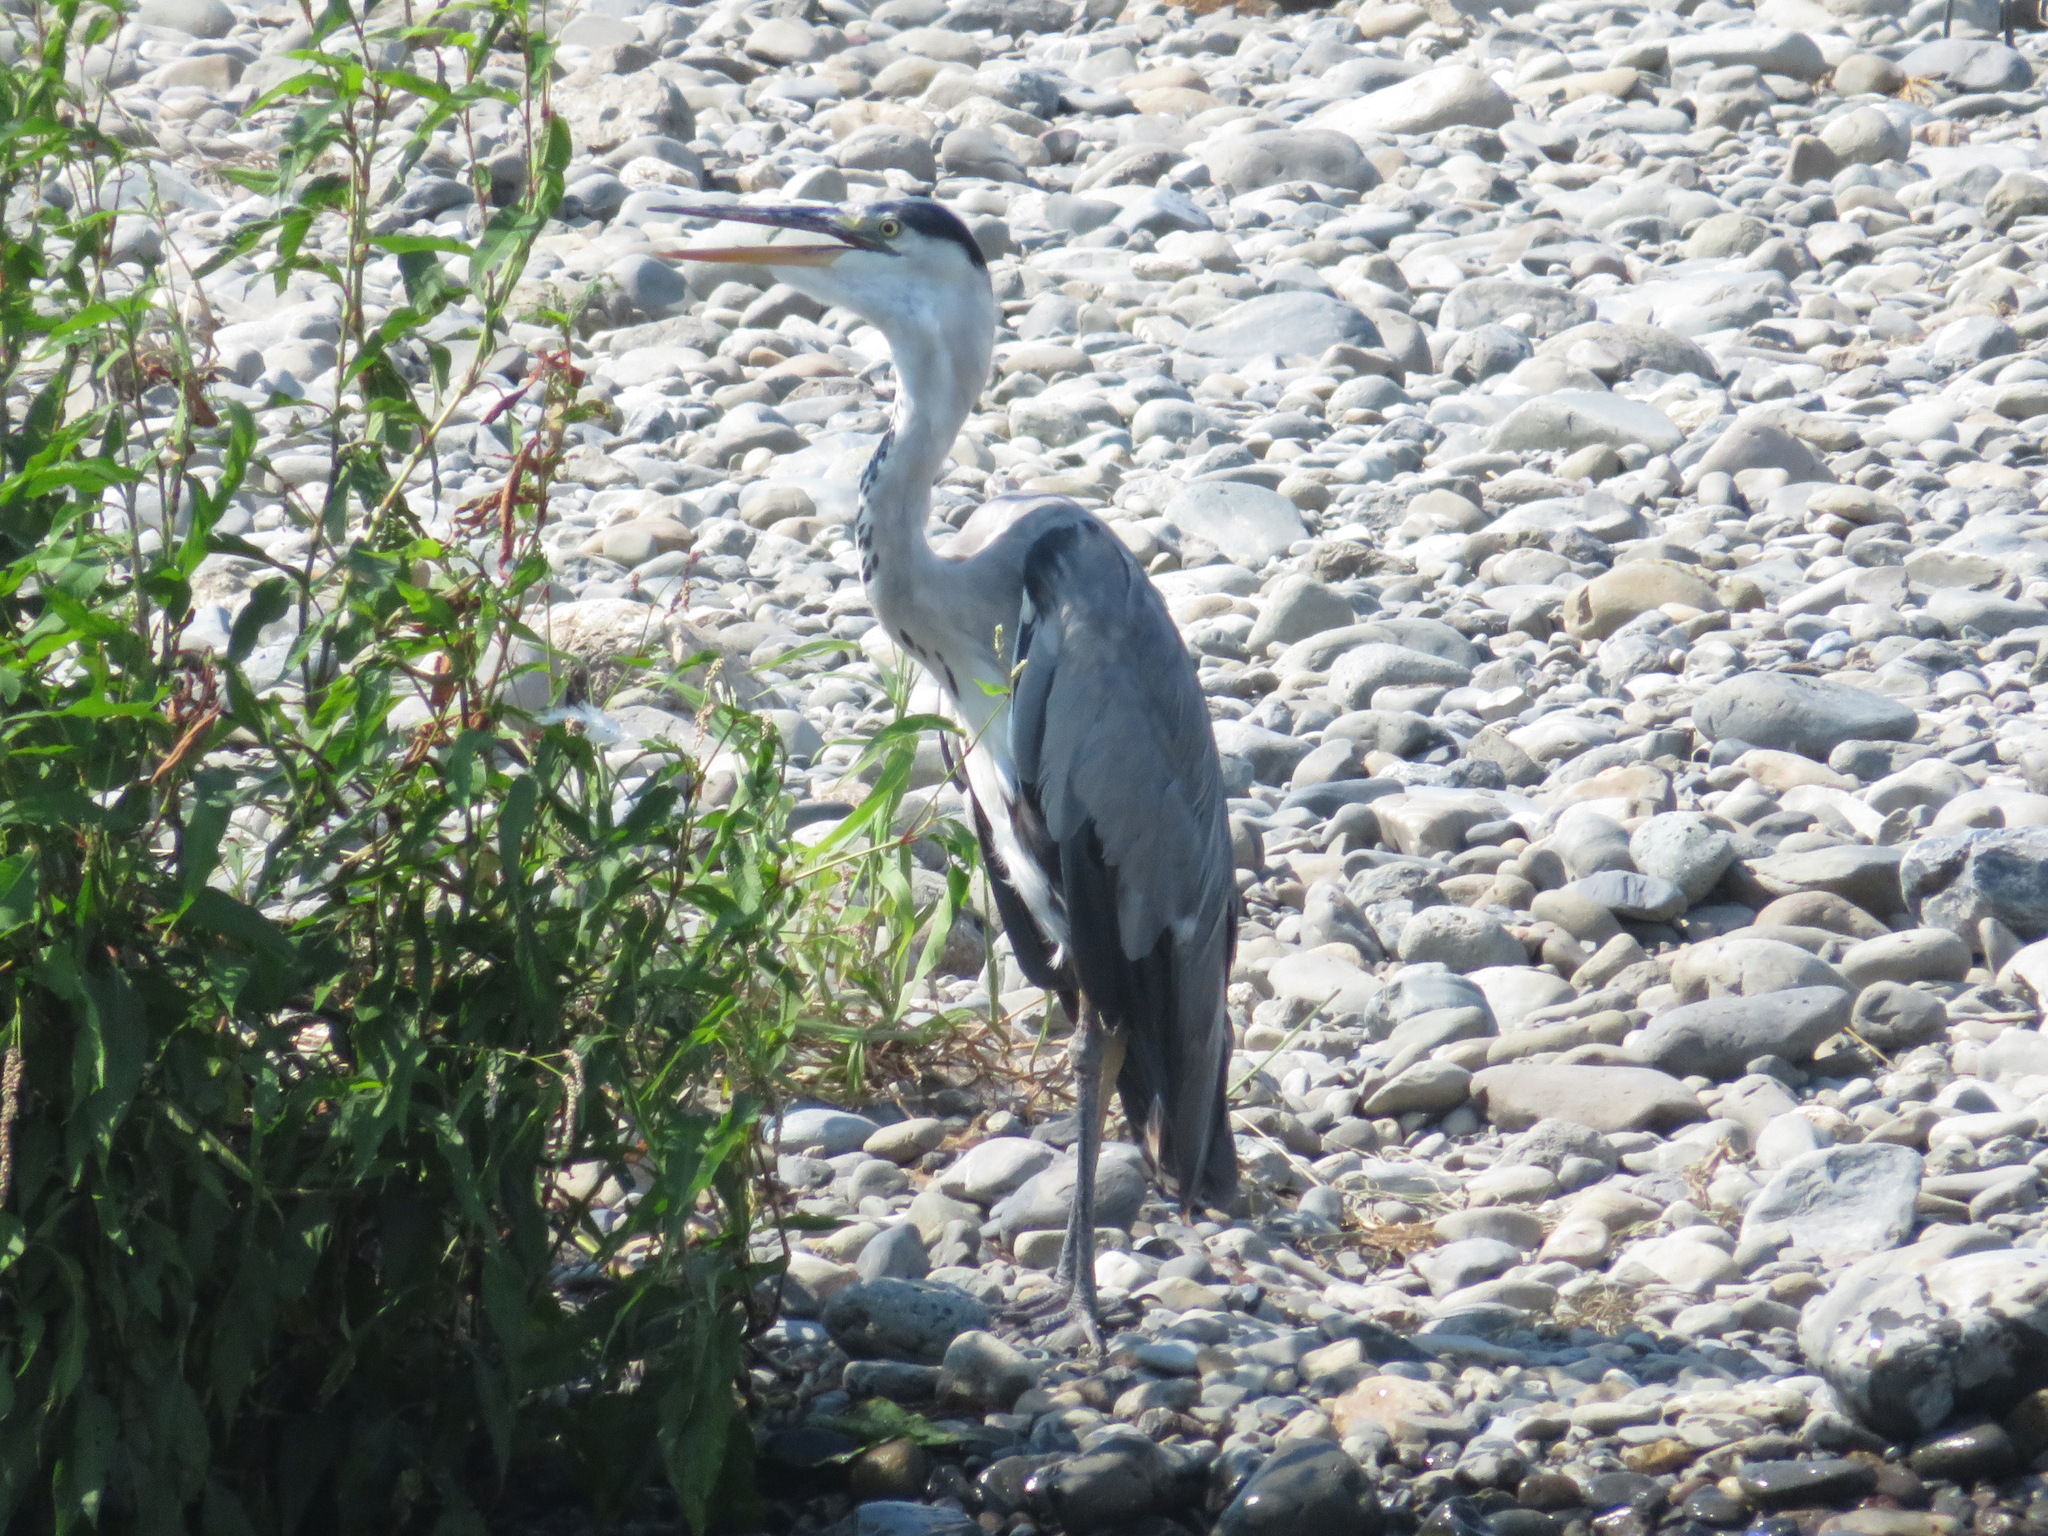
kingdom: Animalia
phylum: Chordata
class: Aves
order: Pelecaniformes
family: Ardeidae
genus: Ardea
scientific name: Ardea cinerea
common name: Grey heron
